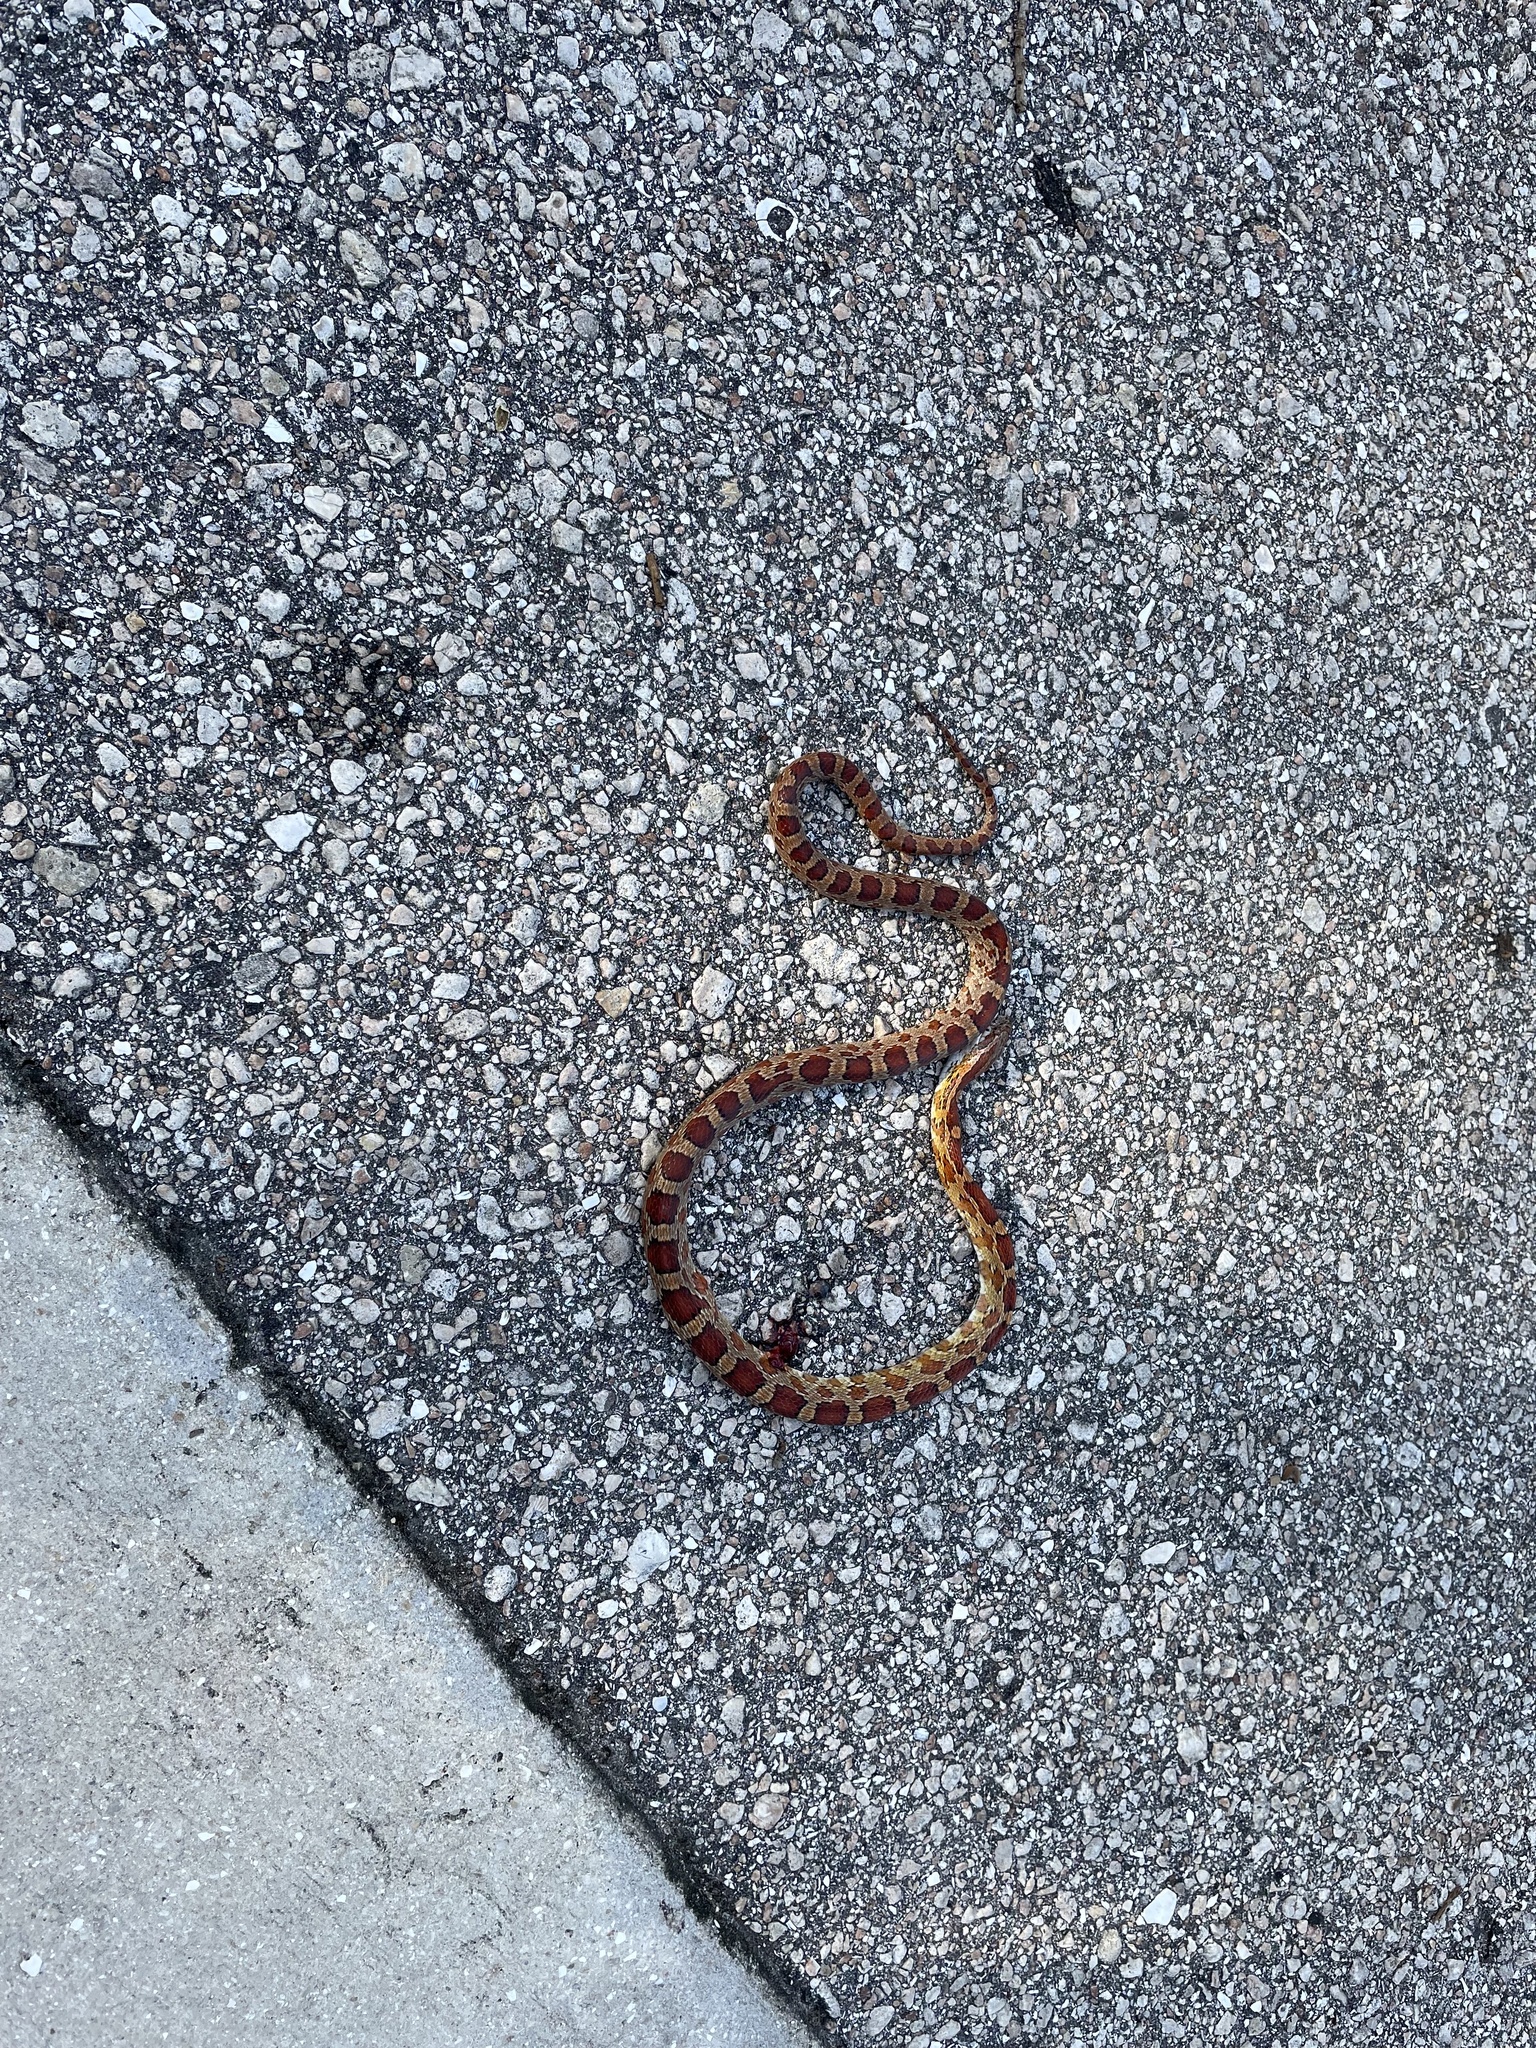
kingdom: Animalia
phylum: Chordata
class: Squamata
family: Colubridae
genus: Pantherophis
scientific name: Pantherophis guttatus
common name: Red cornsnake
